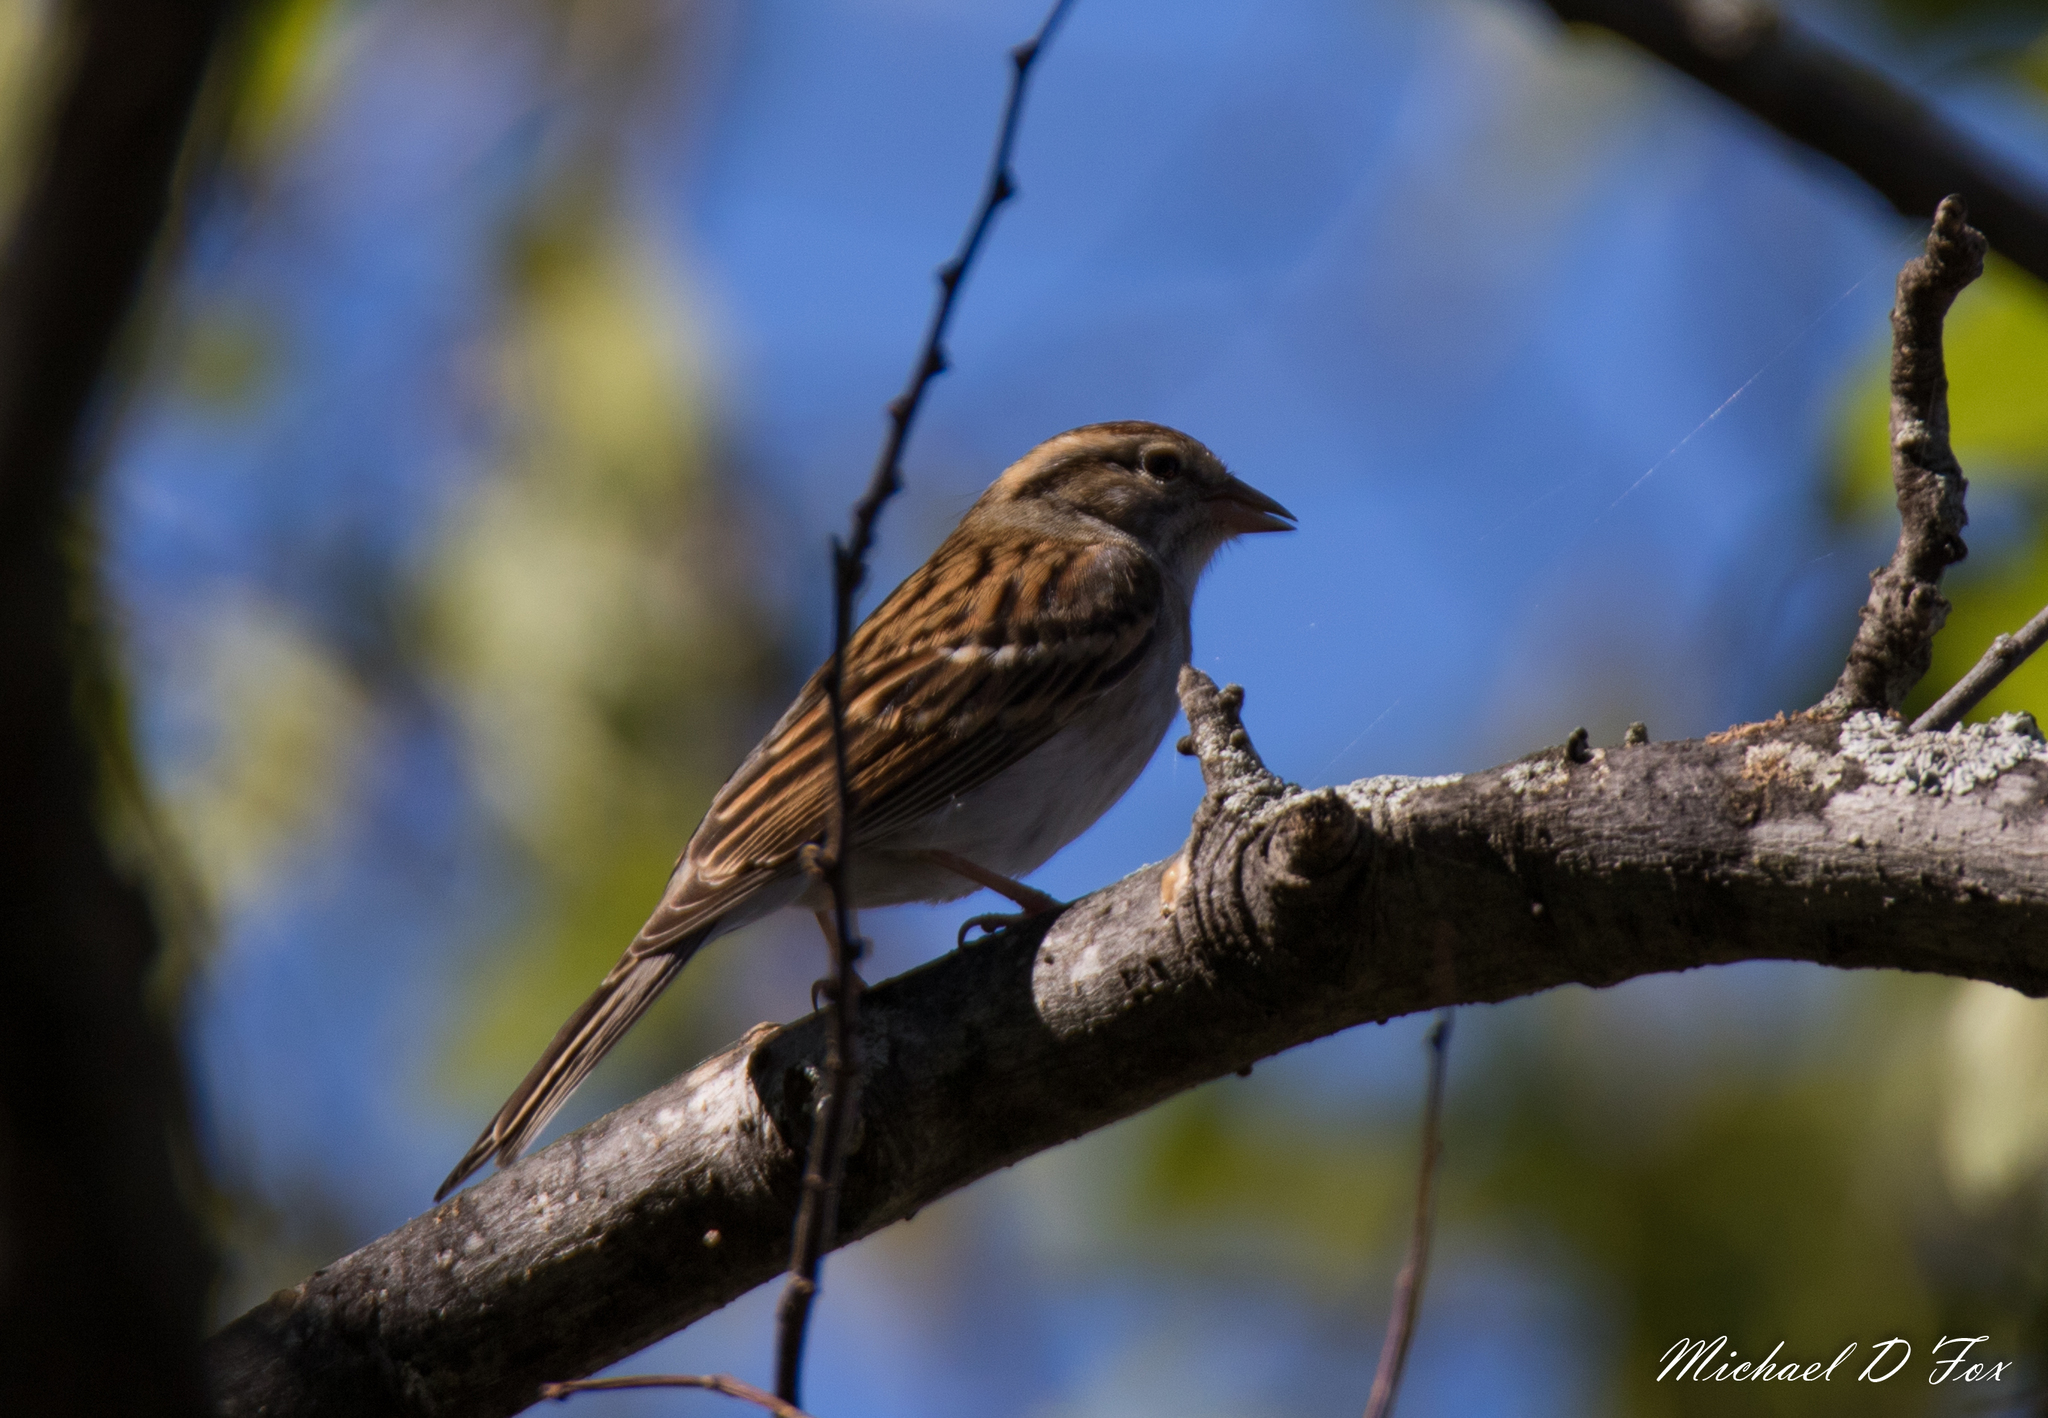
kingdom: Animalia
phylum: Chordata
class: Aves
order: Passeriformes
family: Passerellidae
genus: Spizella
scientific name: Spizella passerina
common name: Chipping sparrow
